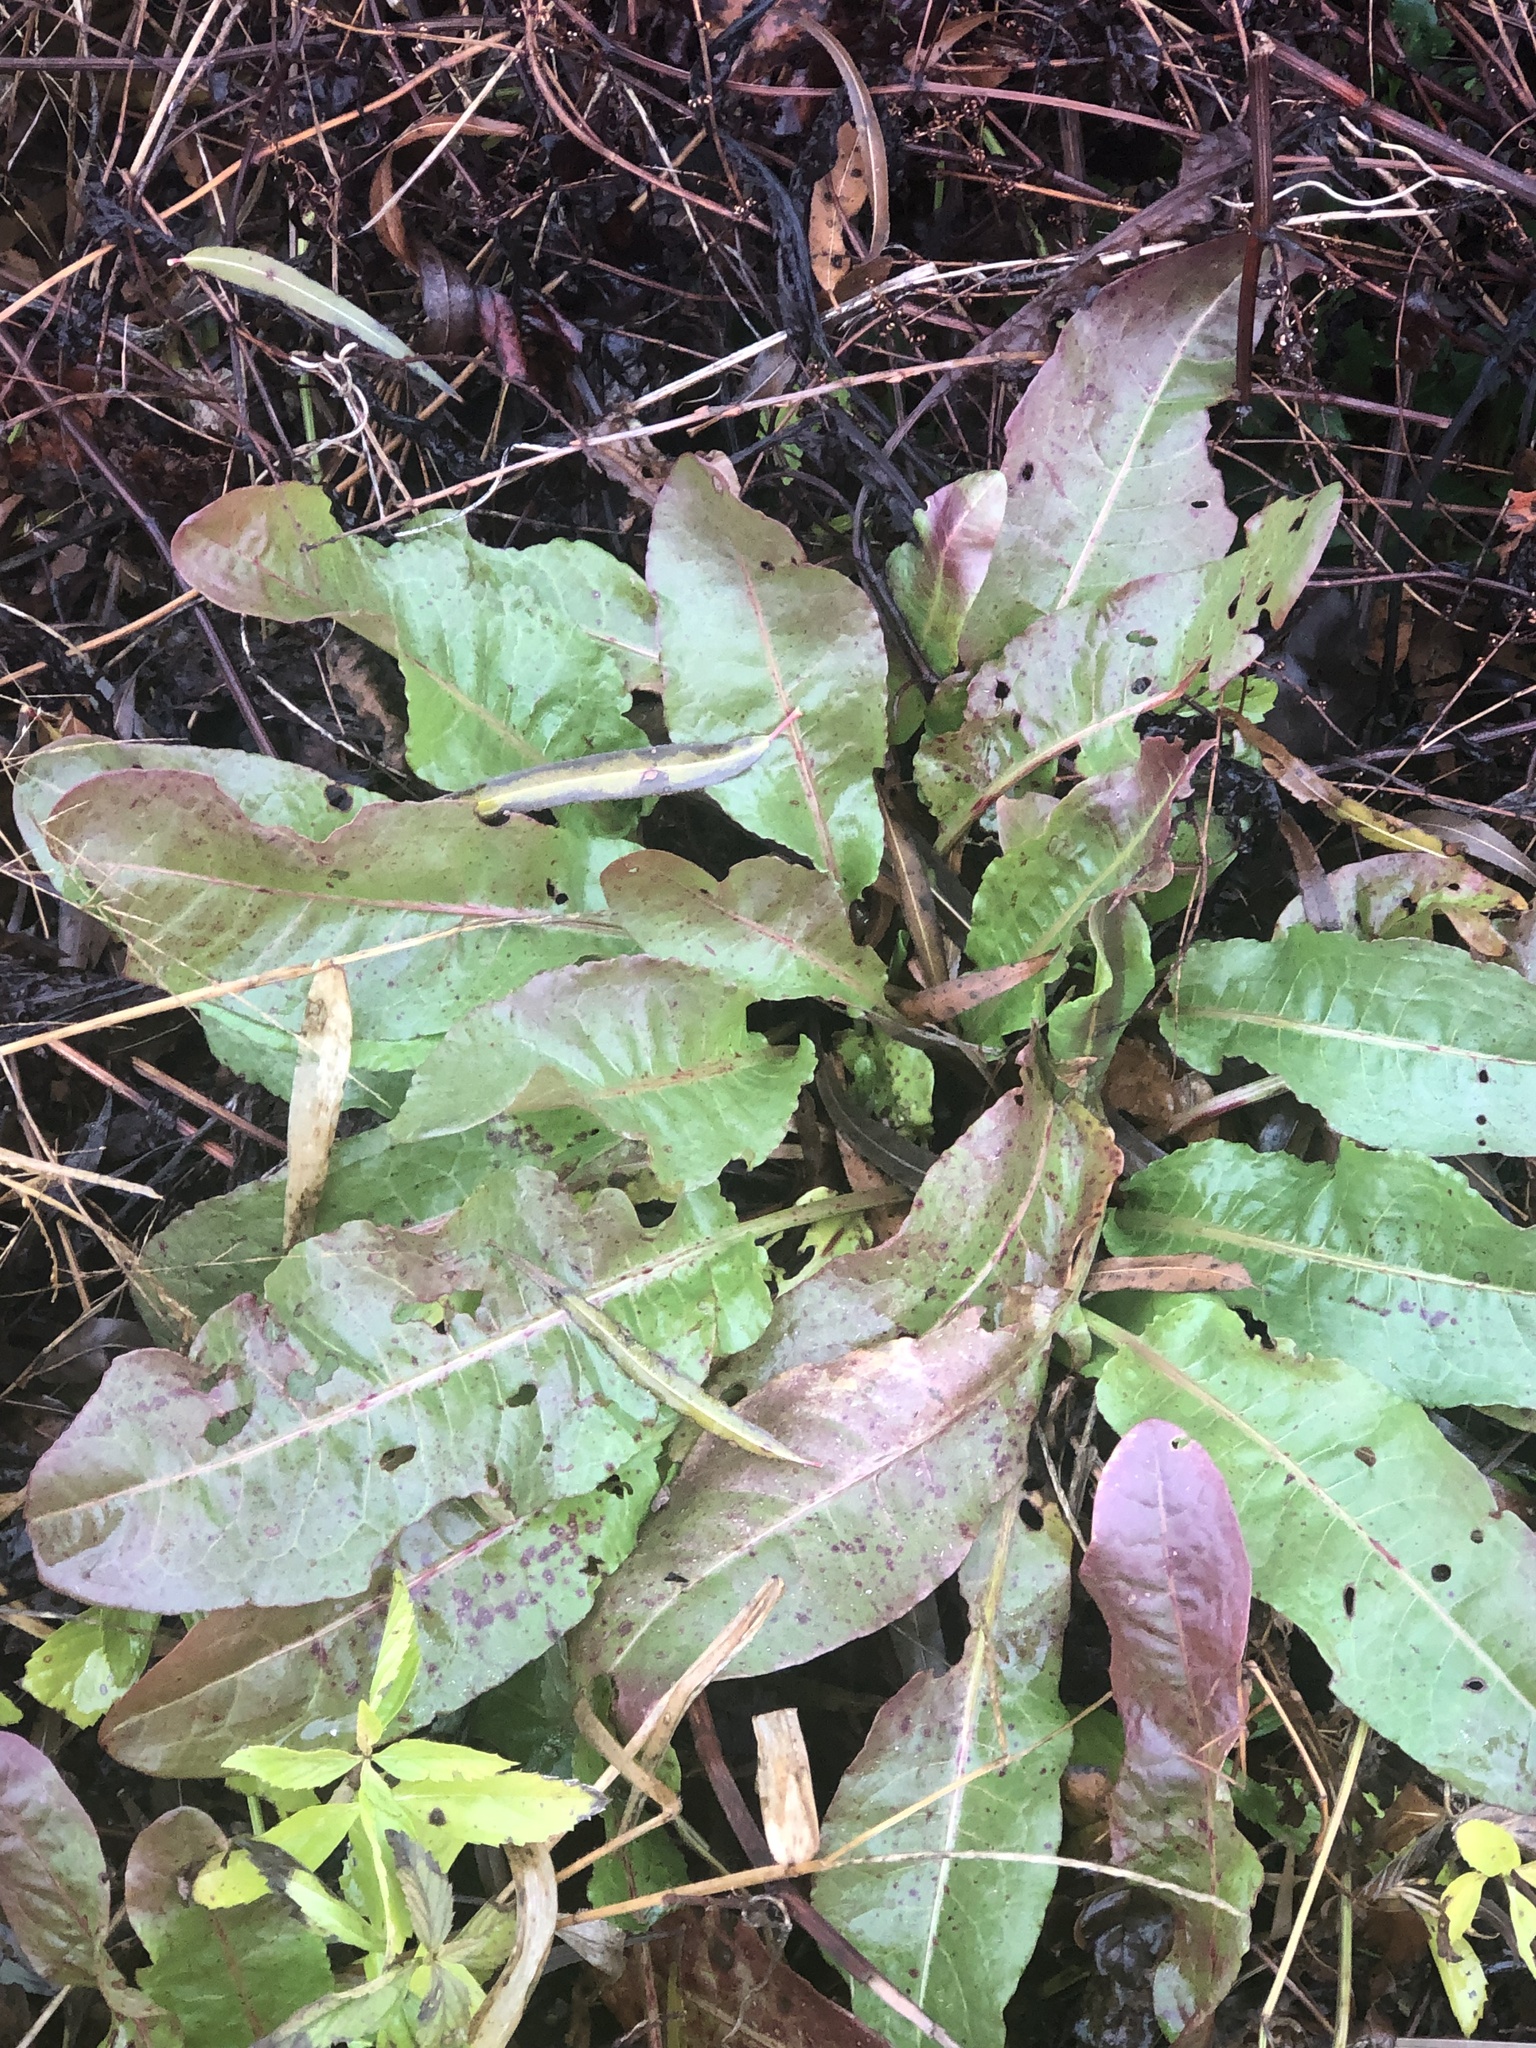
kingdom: Plantae
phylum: Tracheophyta
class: Magnoliopsida
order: Caryophyllales
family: Polygonaceae
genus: Rumex
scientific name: Rumex crispus
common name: Curled dock
